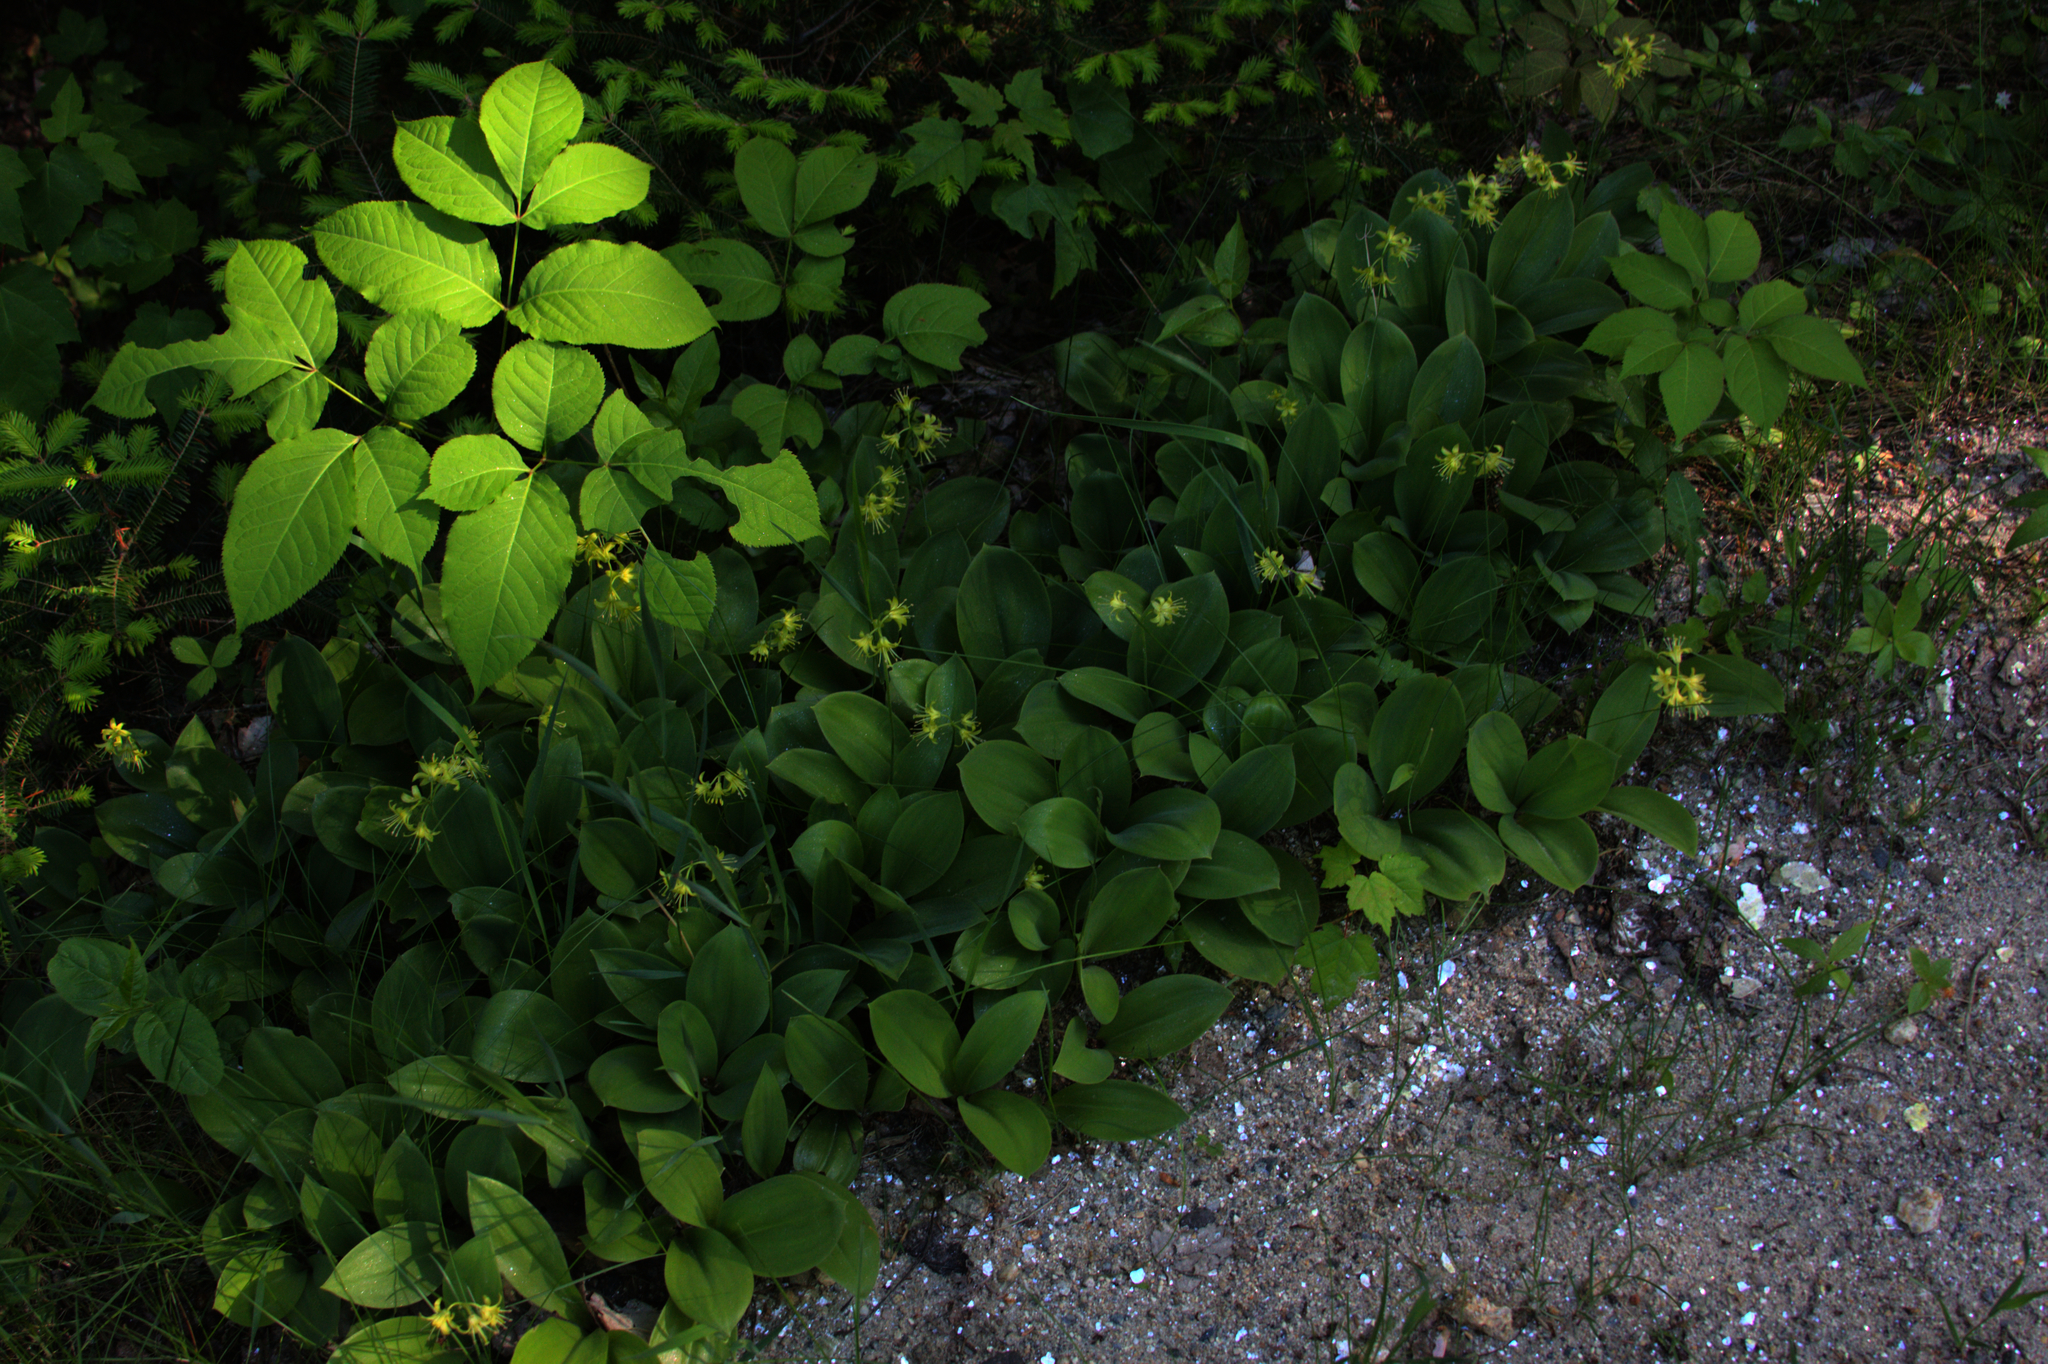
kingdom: Plantae
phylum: Tracheophyta
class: Magnoliopsida
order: Apiales
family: Araliaceae
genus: Aralia
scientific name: Aralia nudicaulis
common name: Wild sarsaparilla
